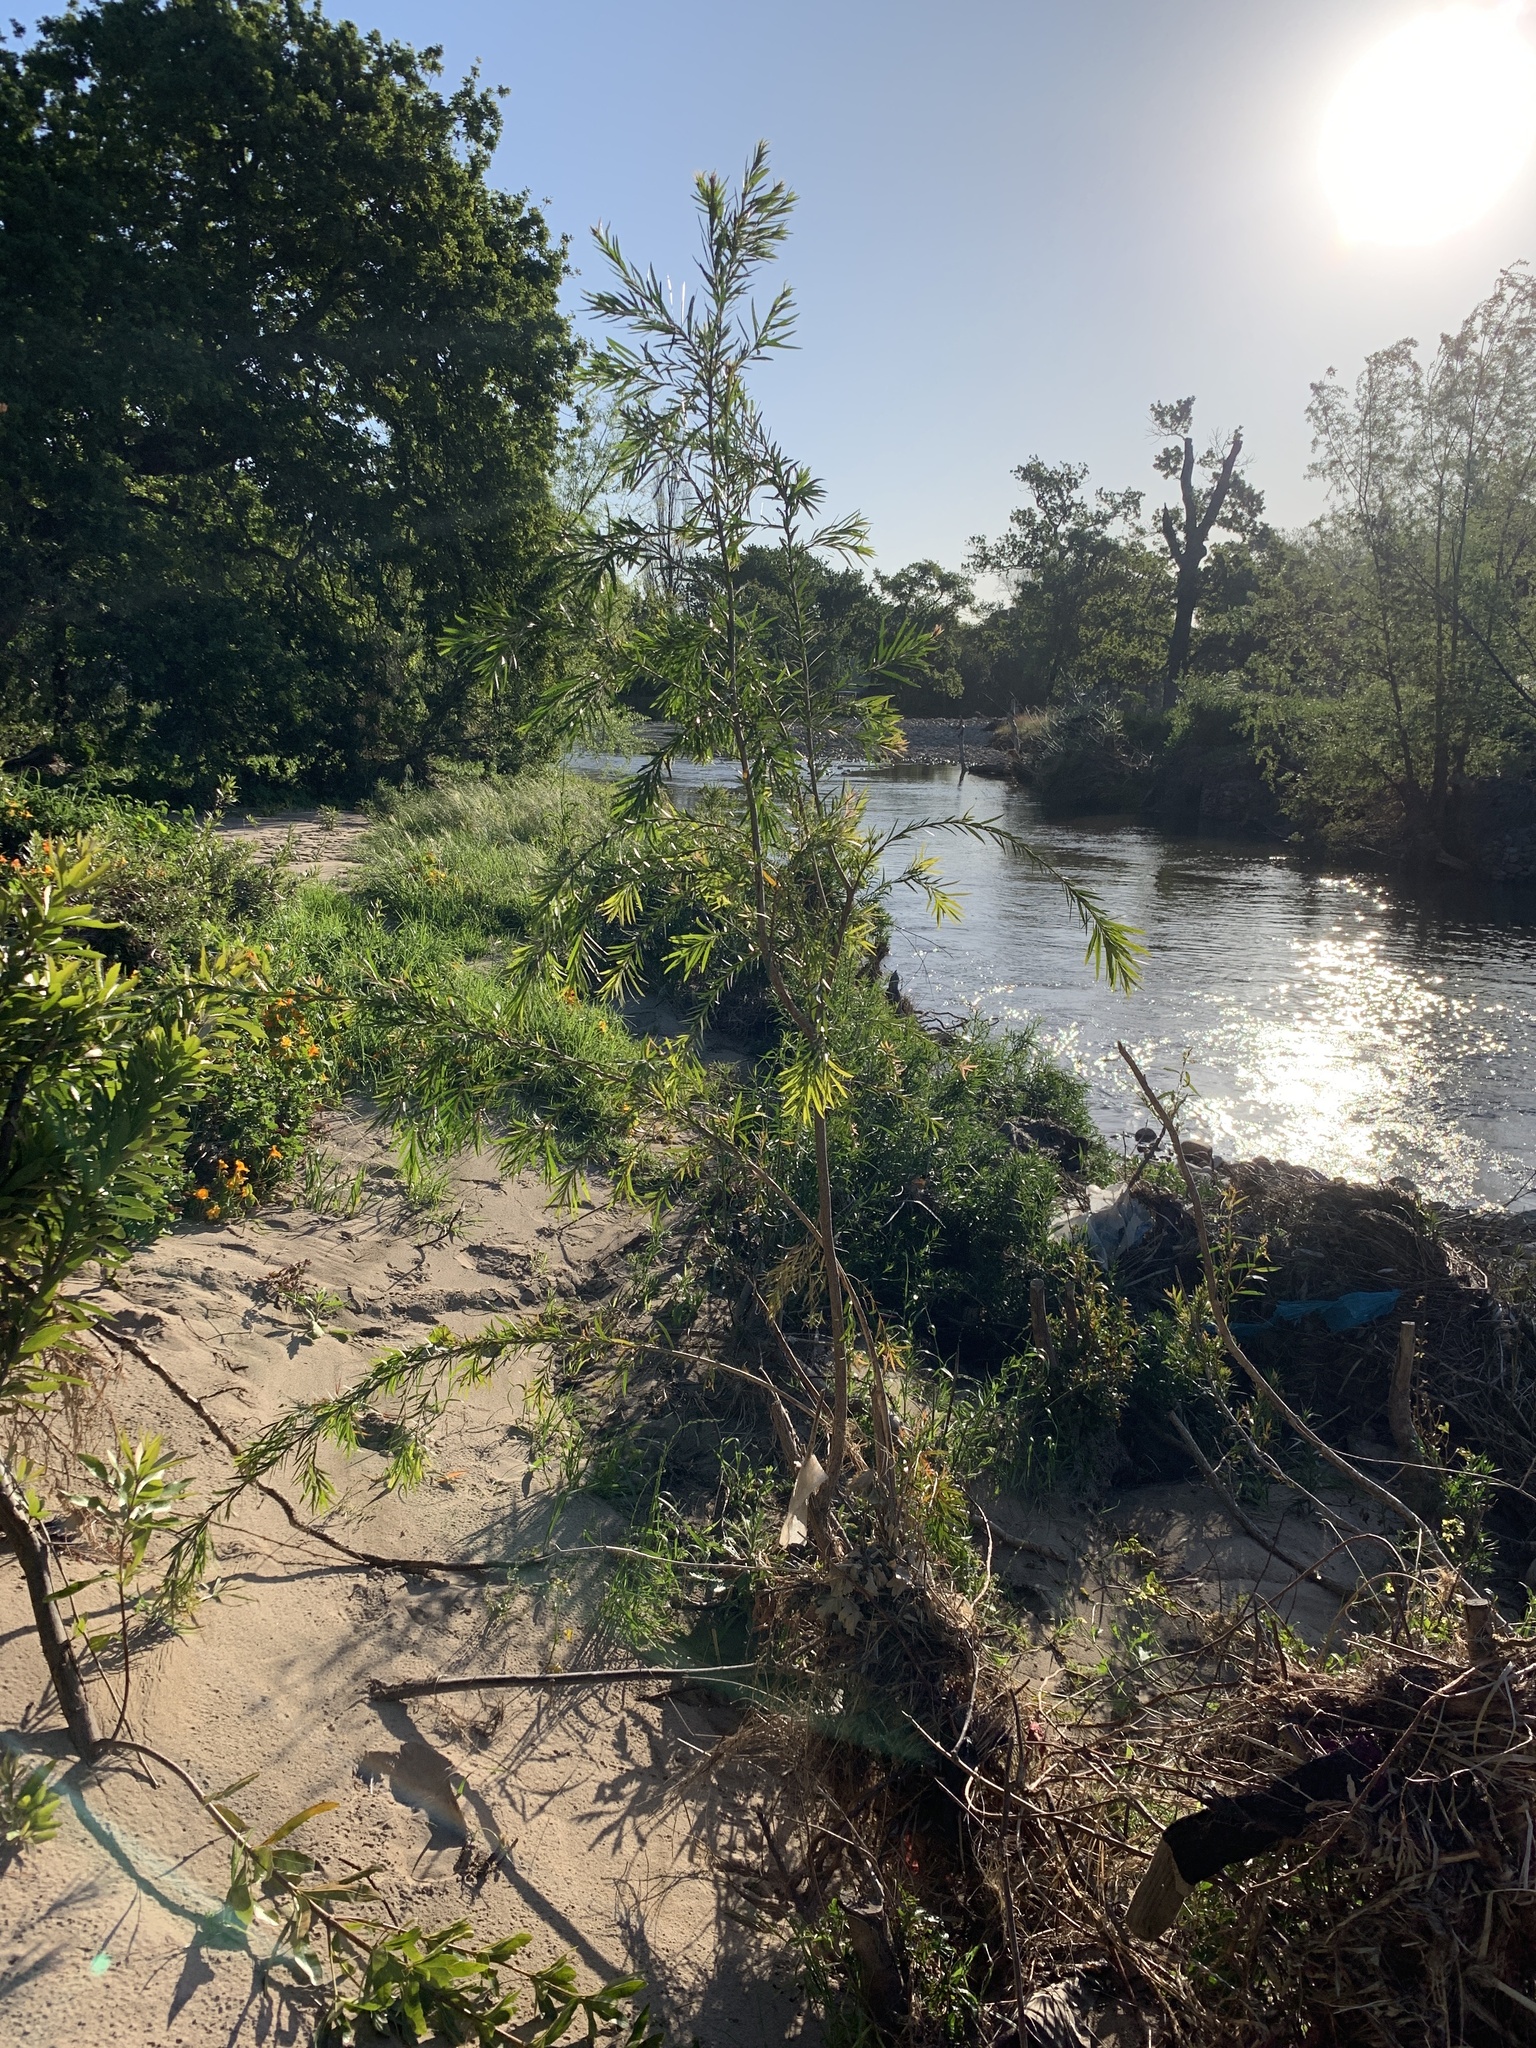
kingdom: Plantae
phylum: Tracheophyta
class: Magnoliopsida
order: Myrtales
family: Myrtaceae
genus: Callistemon
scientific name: Callistemon viminalis
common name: Drooping bottlebrush
